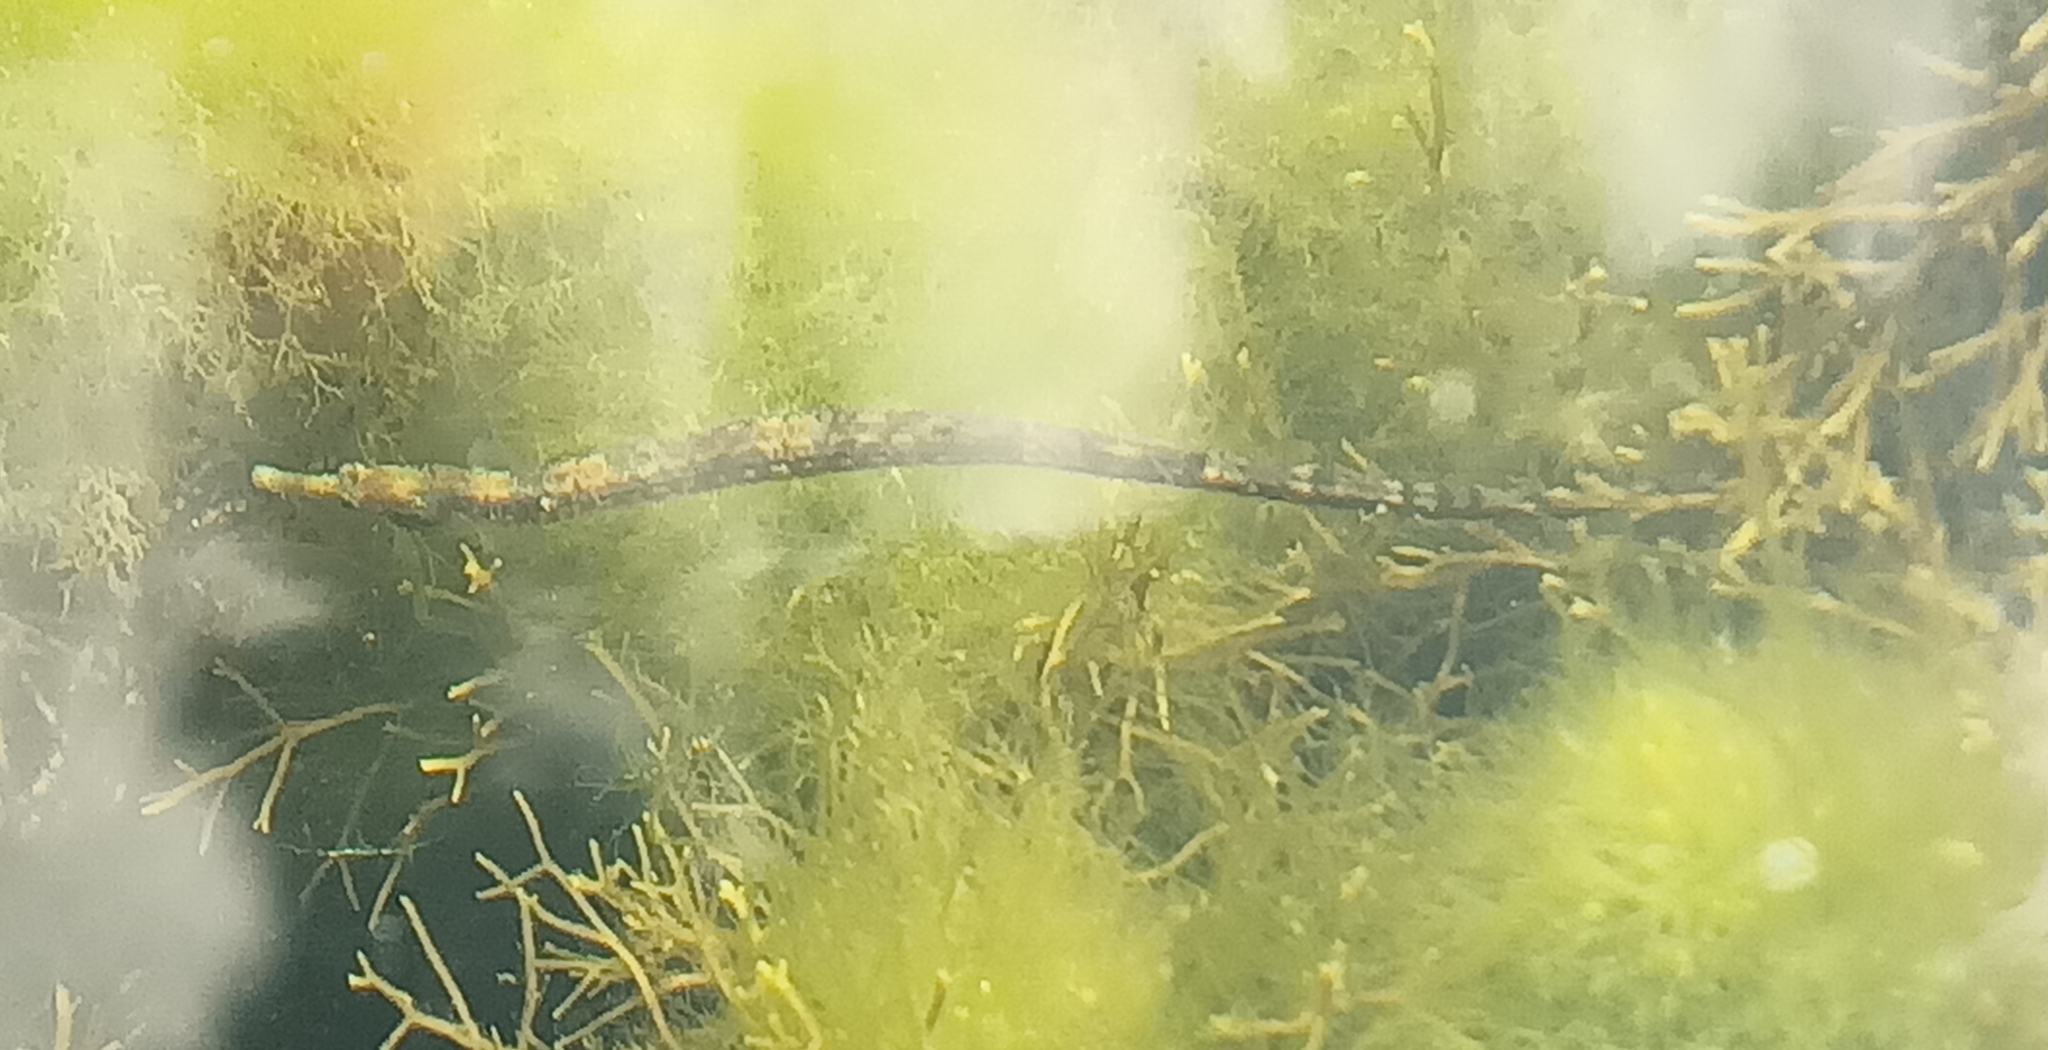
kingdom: Animalia
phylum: Chordata
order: Syngnathiformes
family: Syngnathidae
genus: Syngnathus
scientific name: Syngnathus acus
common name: Greater pipefish
